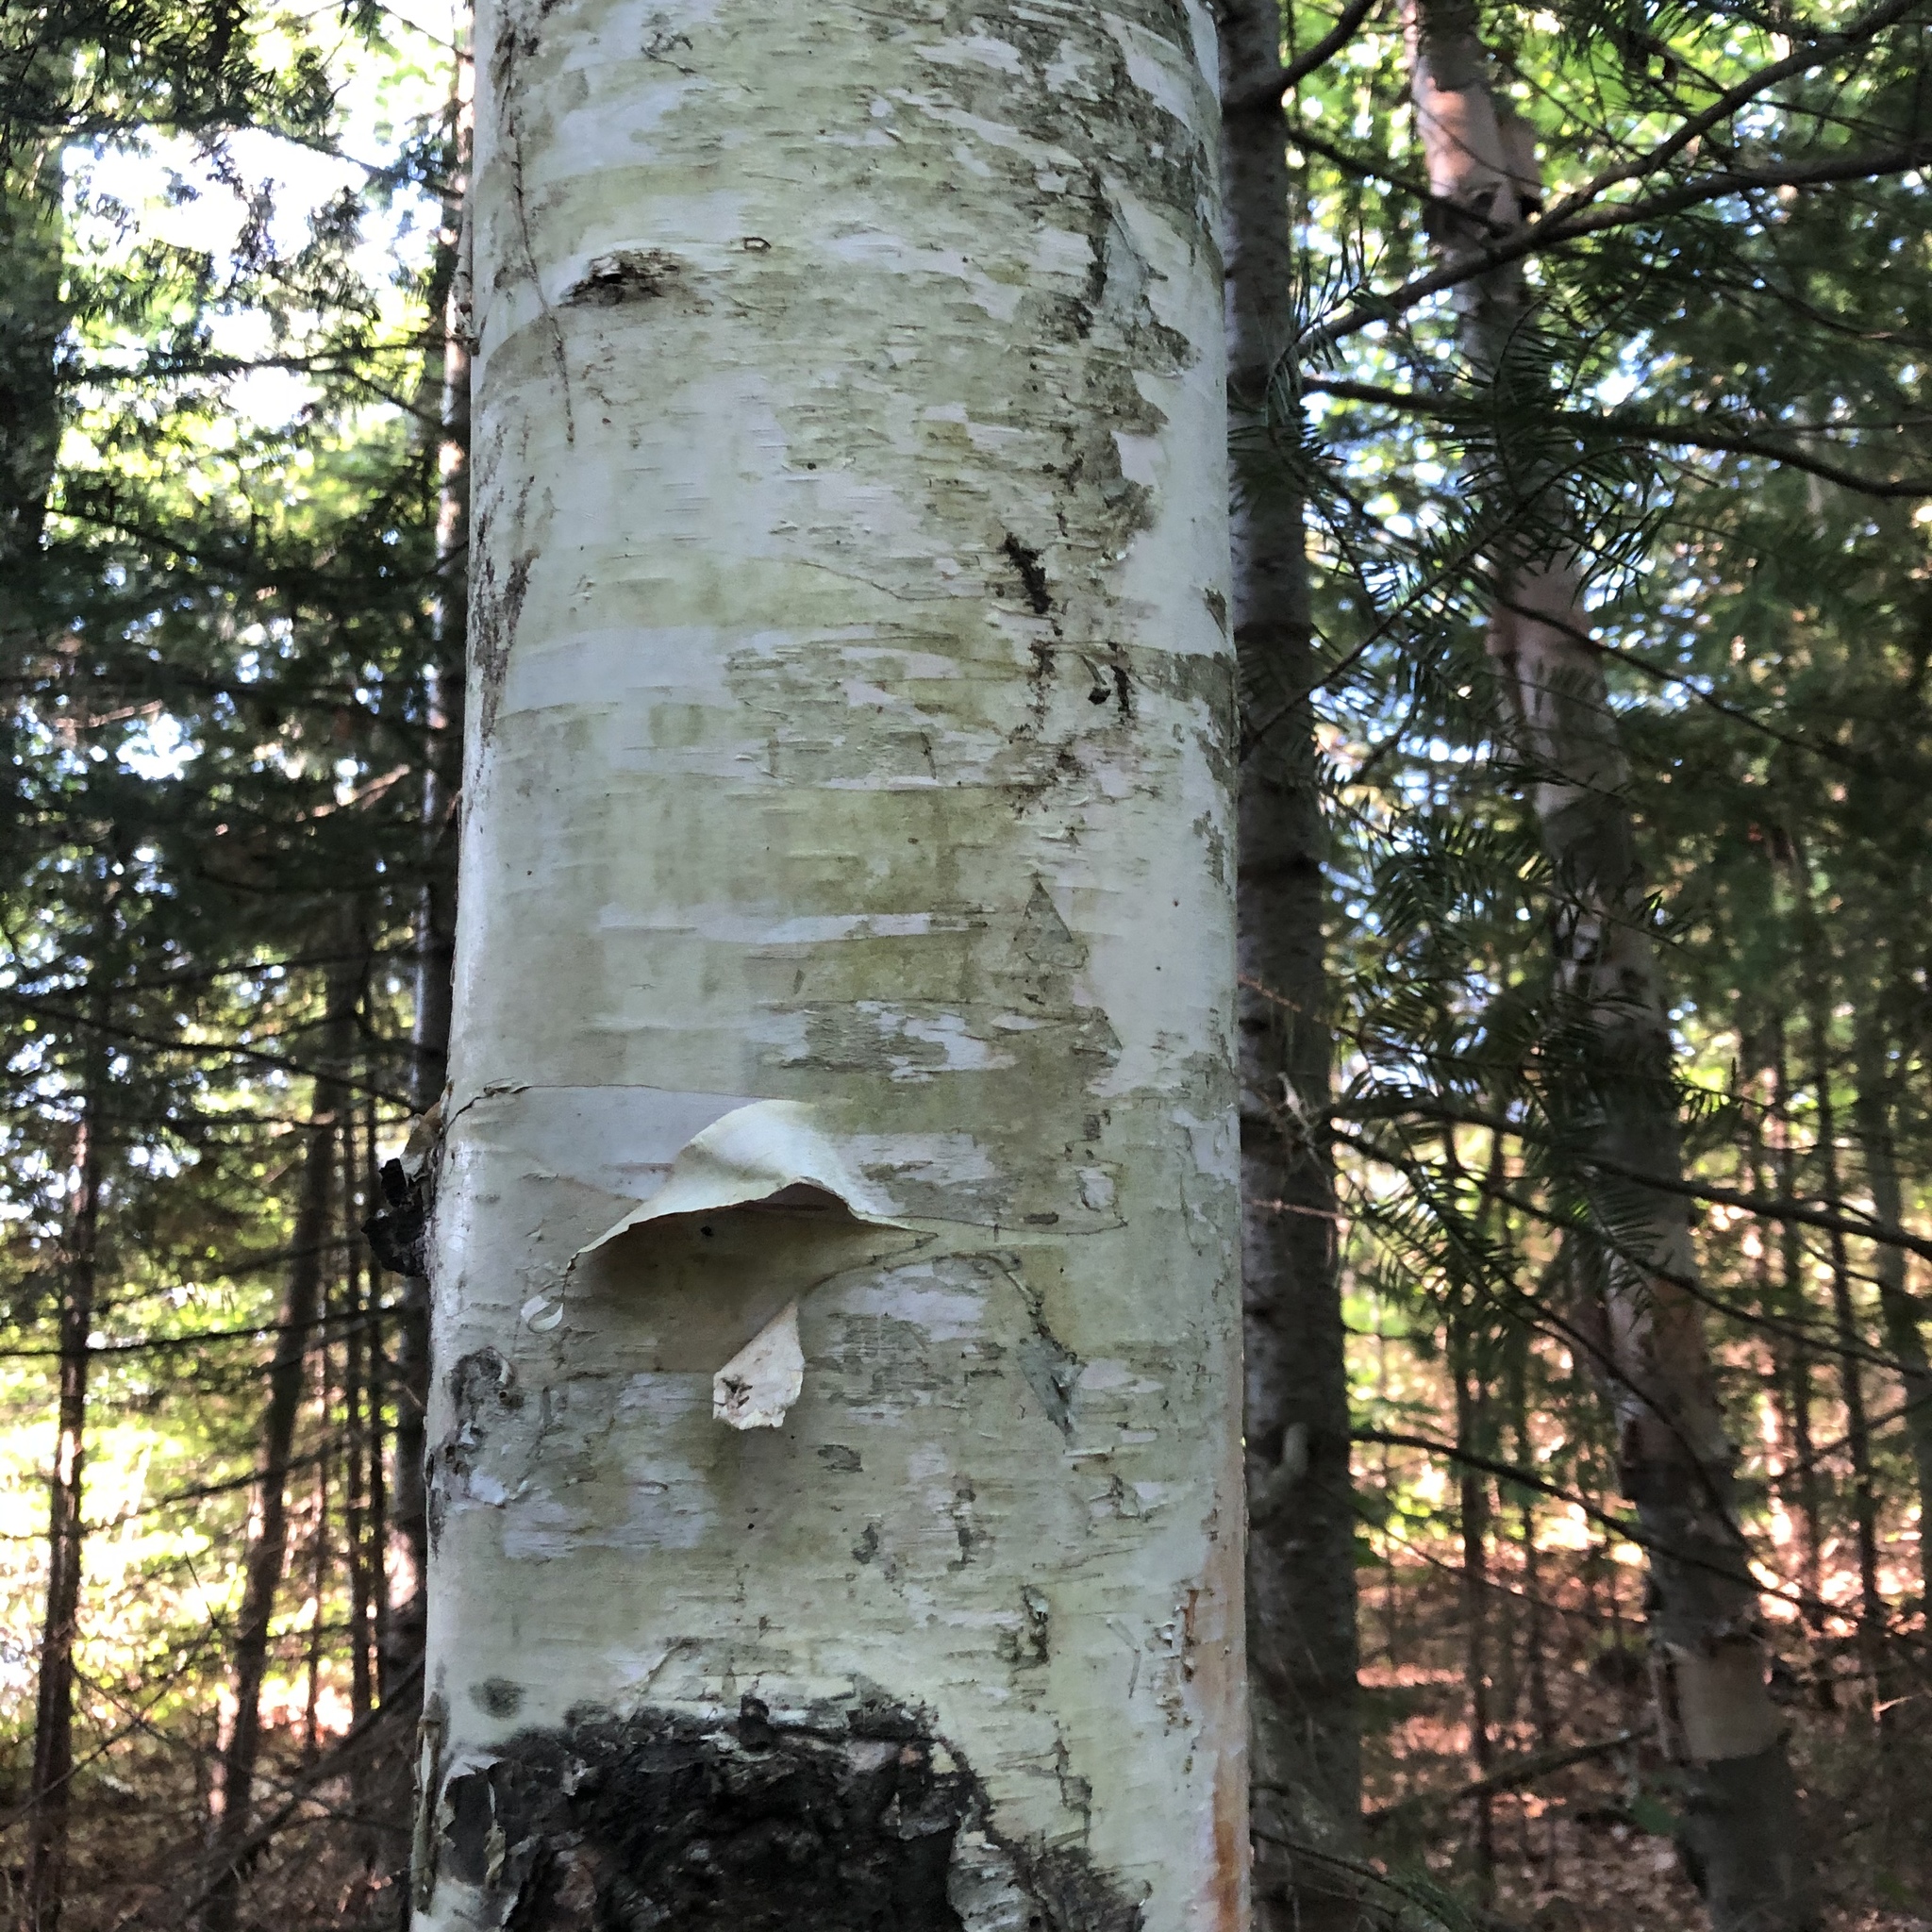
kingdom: Plantae
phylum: Tracheophyta
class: Magnoliopsida
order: Fagales
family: Betulaceae
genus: Betula
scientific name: Betula papyrifera
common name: Paper birch
